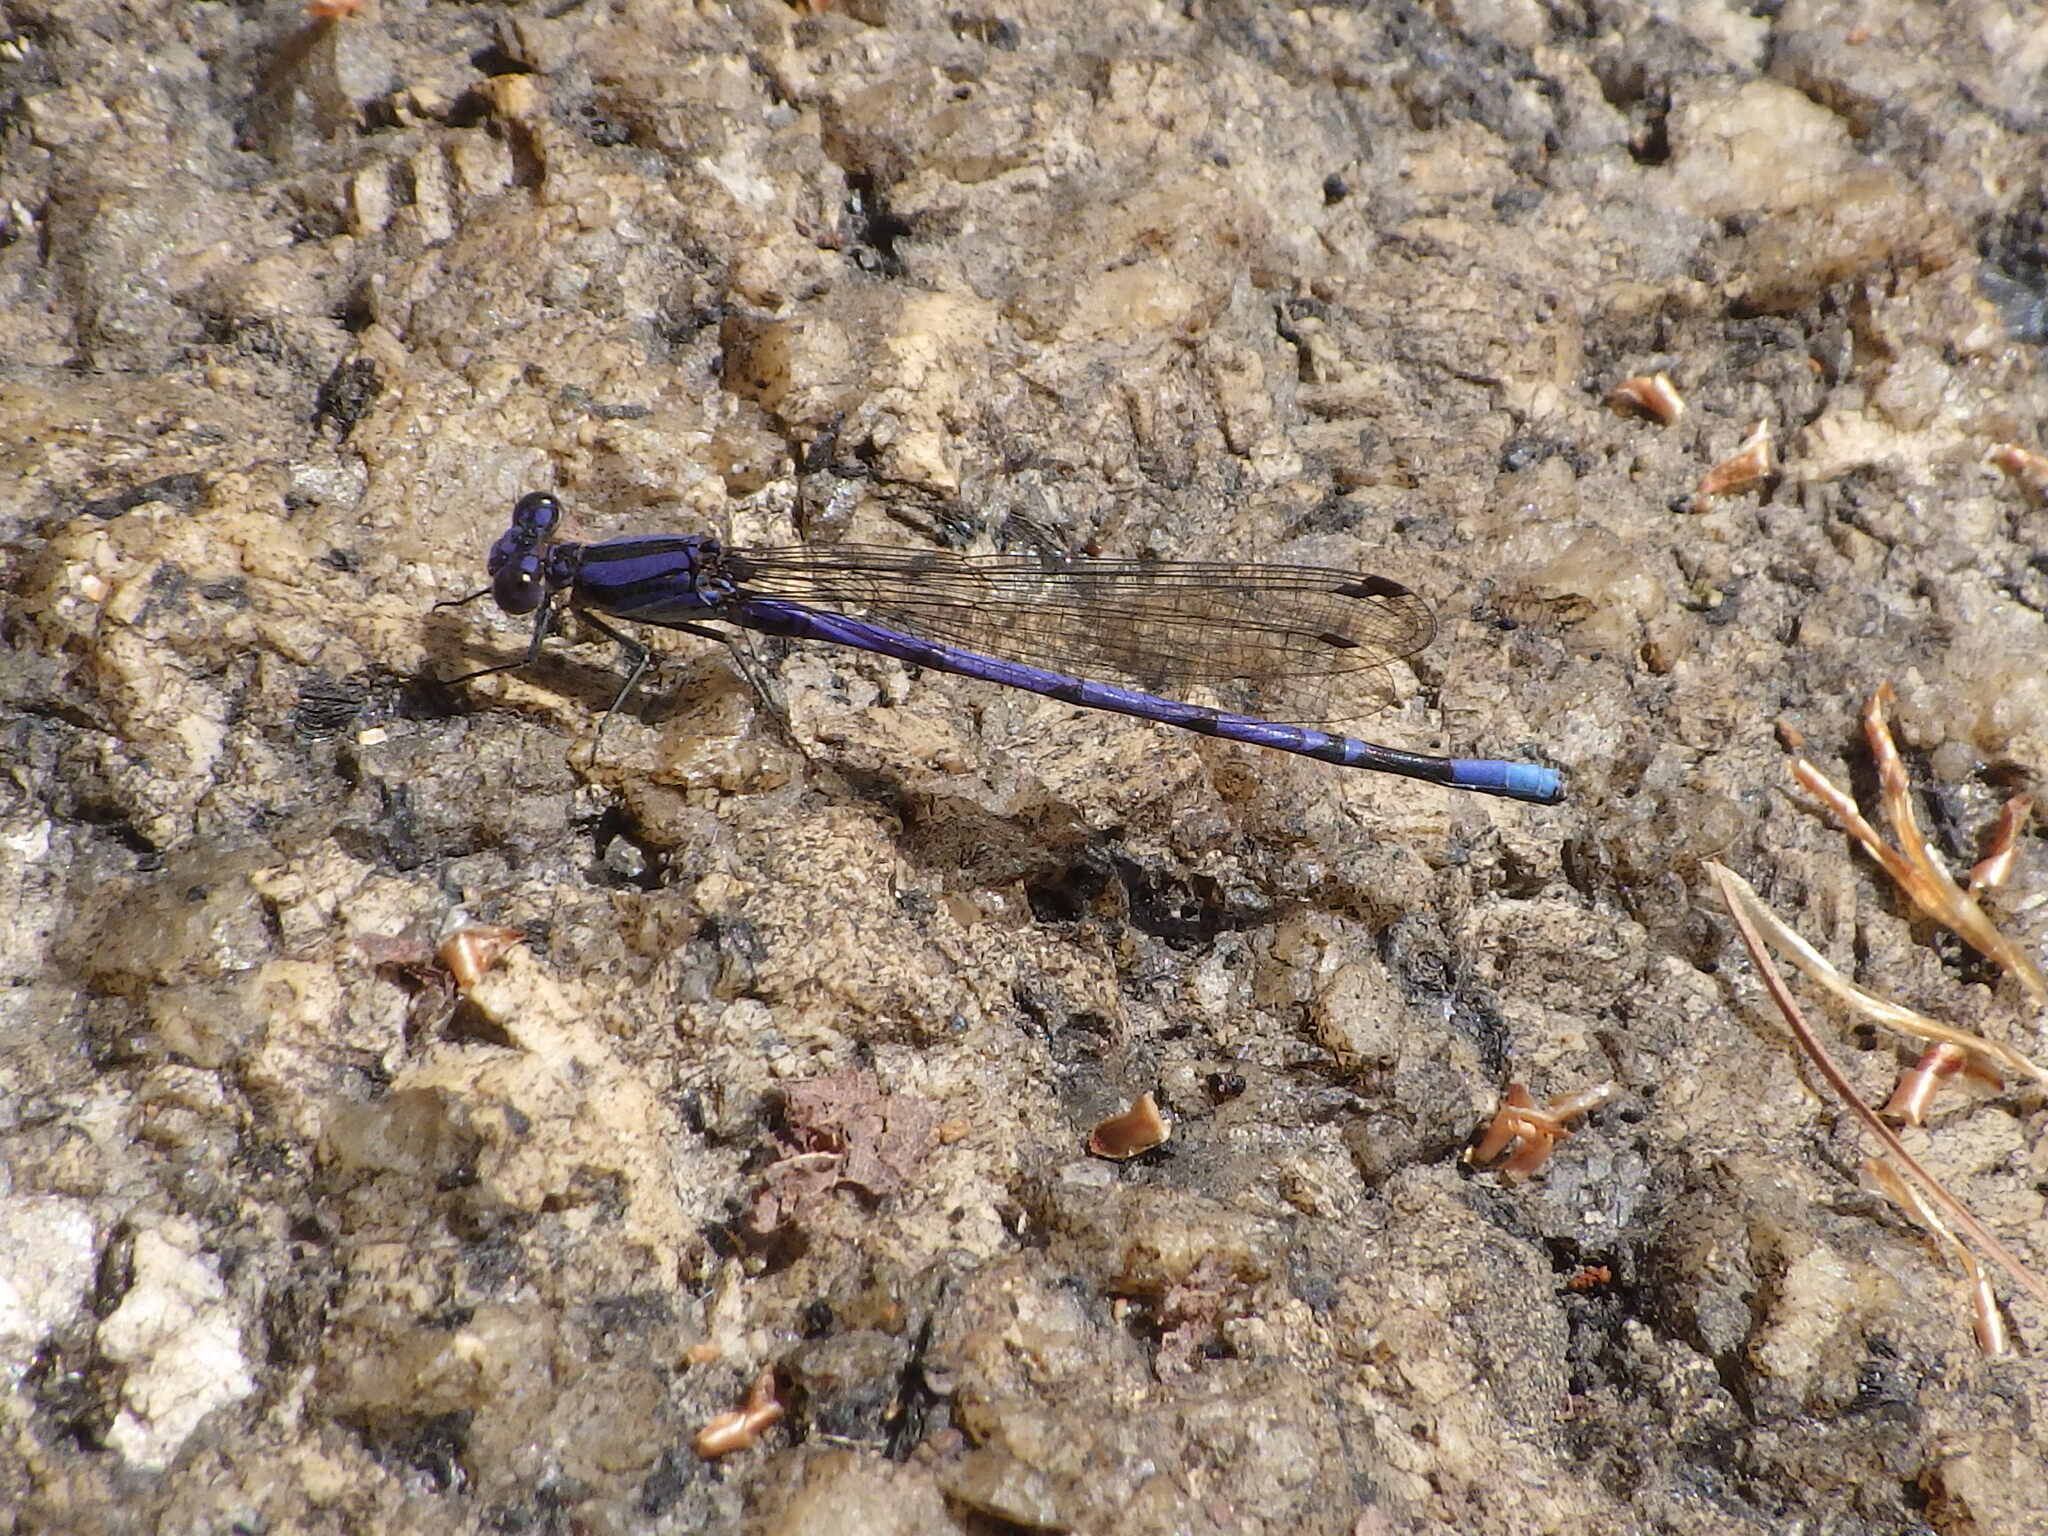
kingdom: Animalia
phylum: Arthropoda
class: Insecta
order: Odonata
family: Coenagrionidae
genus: Argia
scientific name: Argia fumipennis
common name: Variable dancer
